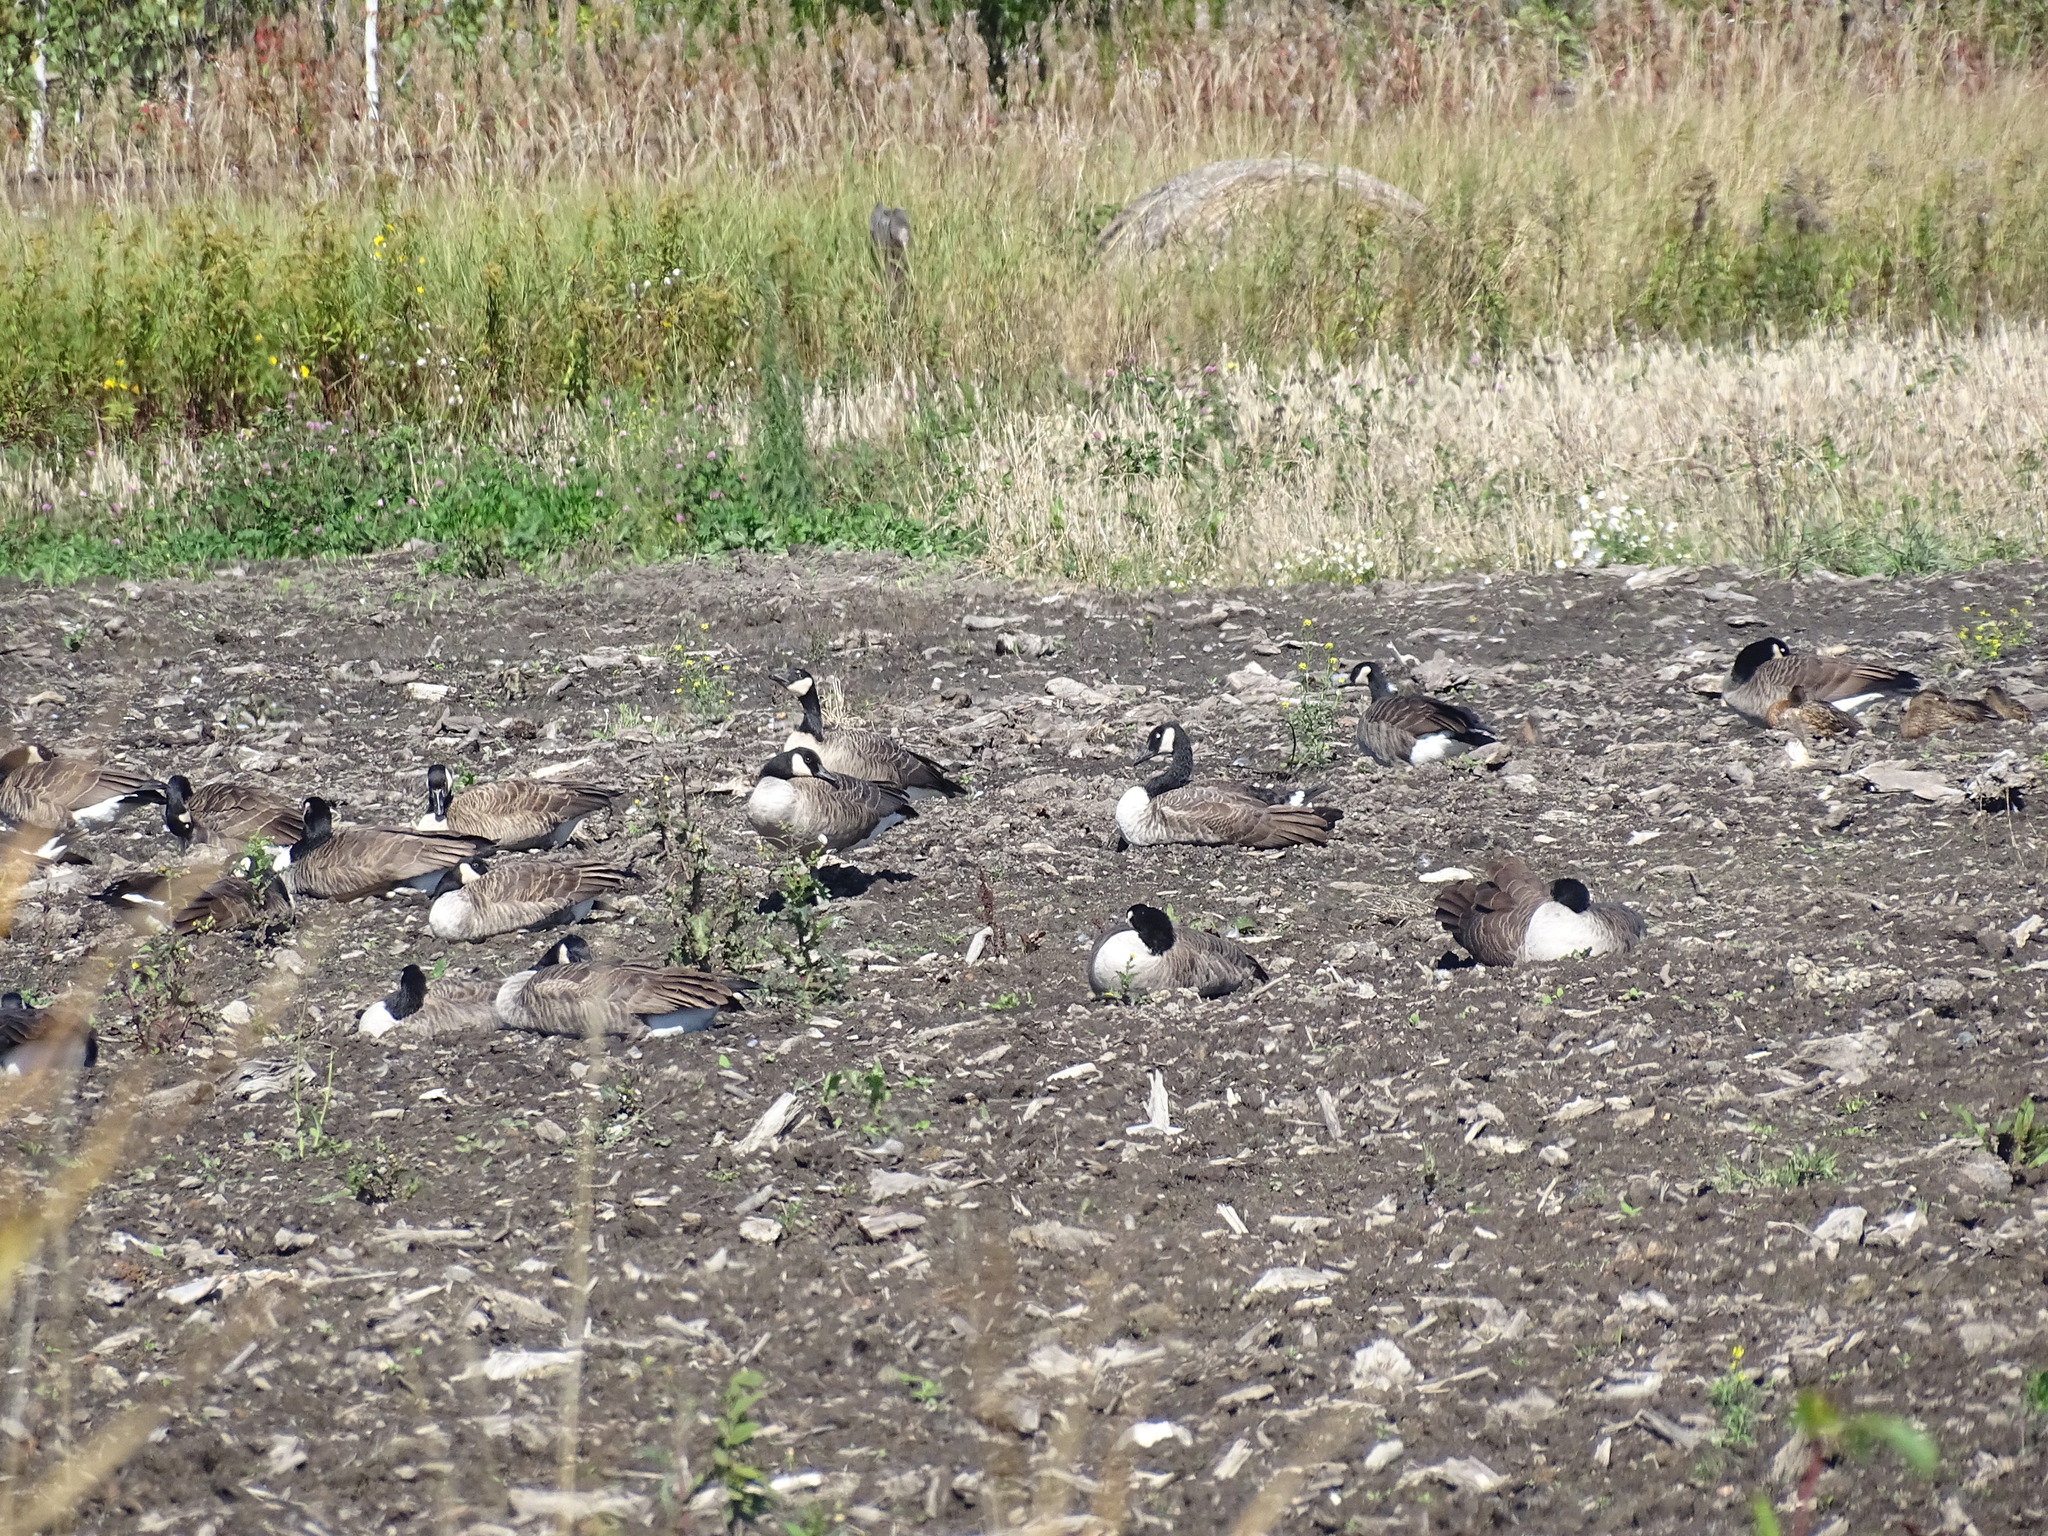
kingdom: Animalia
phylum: Chordata
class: Aves
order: Anseriformes
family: Anatidae
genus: Branta
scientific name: Branta canadensis
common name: Canada goose
